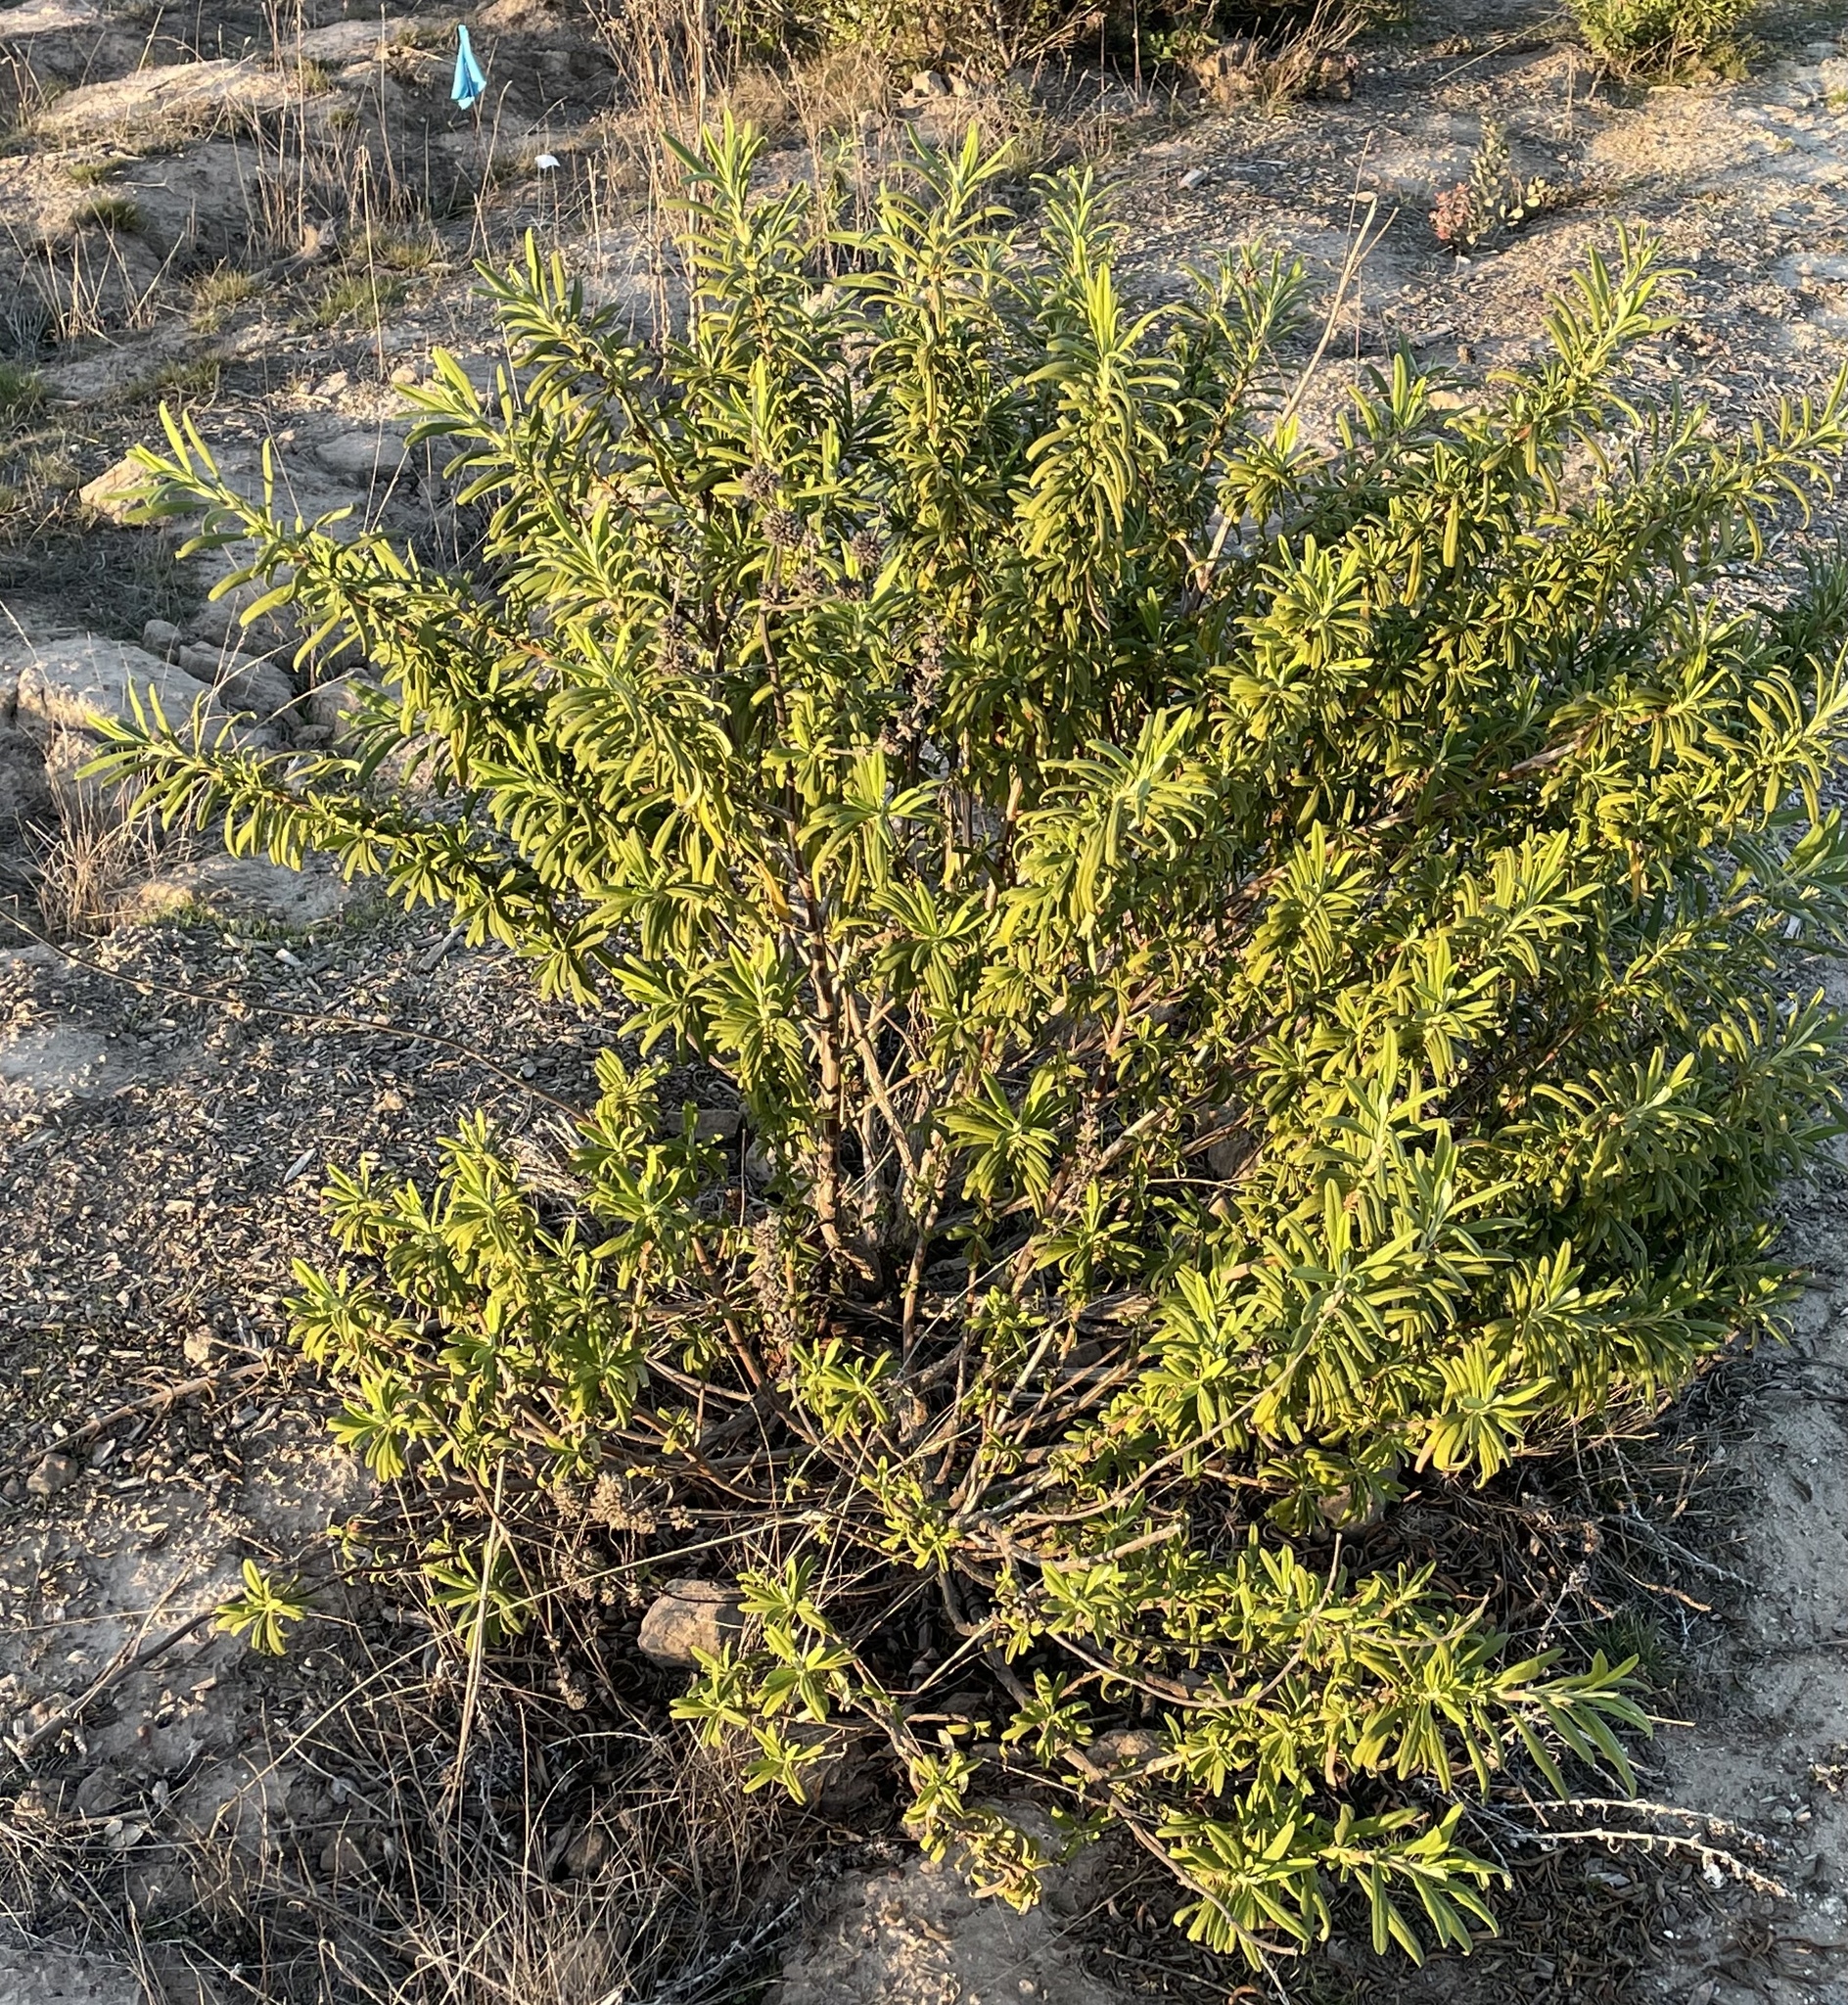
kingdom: Plantae
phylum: Tracheophyta
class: Magnoliopsida
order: Lamiales
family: Lamiaceae
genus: Salvia
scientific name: Salvia mellifera
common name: Black sage
